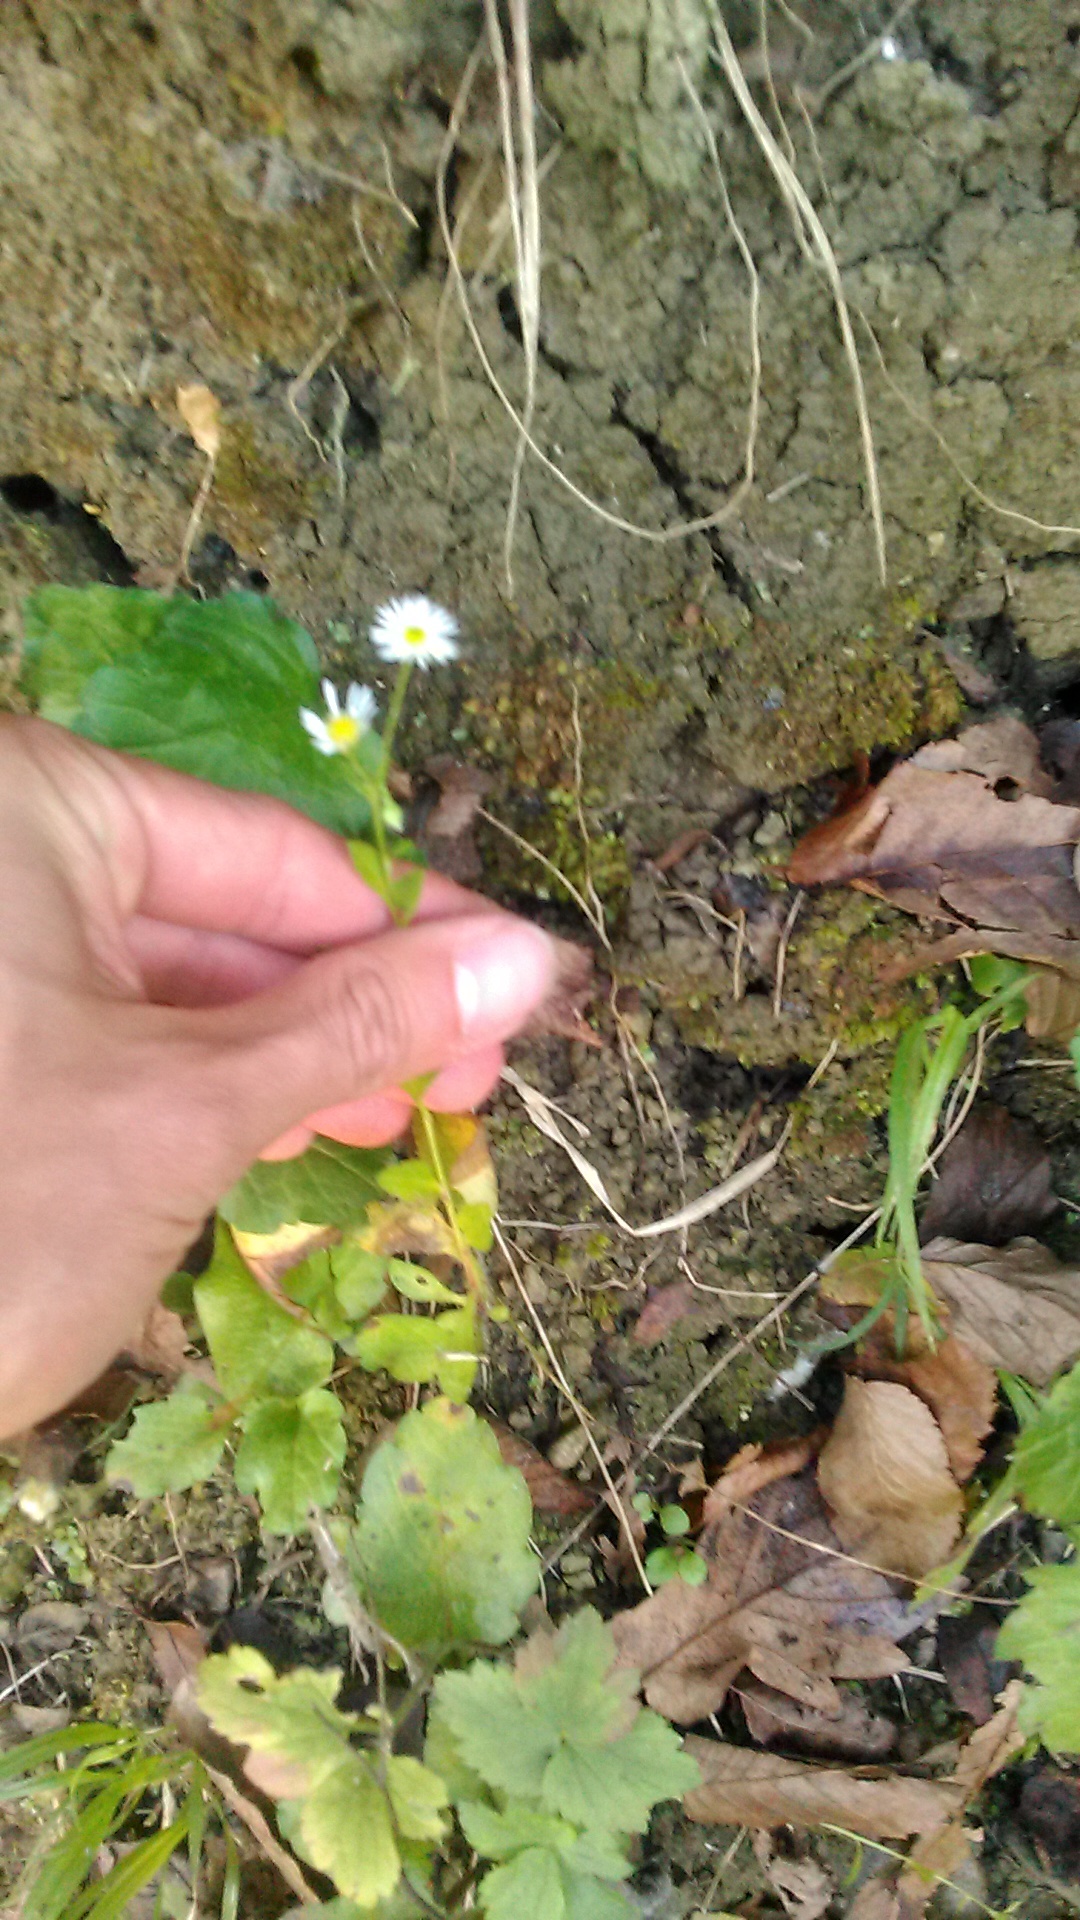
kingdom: Plantae
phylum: Tracheophyta
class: Magnoliopsida
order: Asterales
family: Asteraceae
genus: Erigeron
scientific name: Erigeron annuus
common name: Tall fleabane
